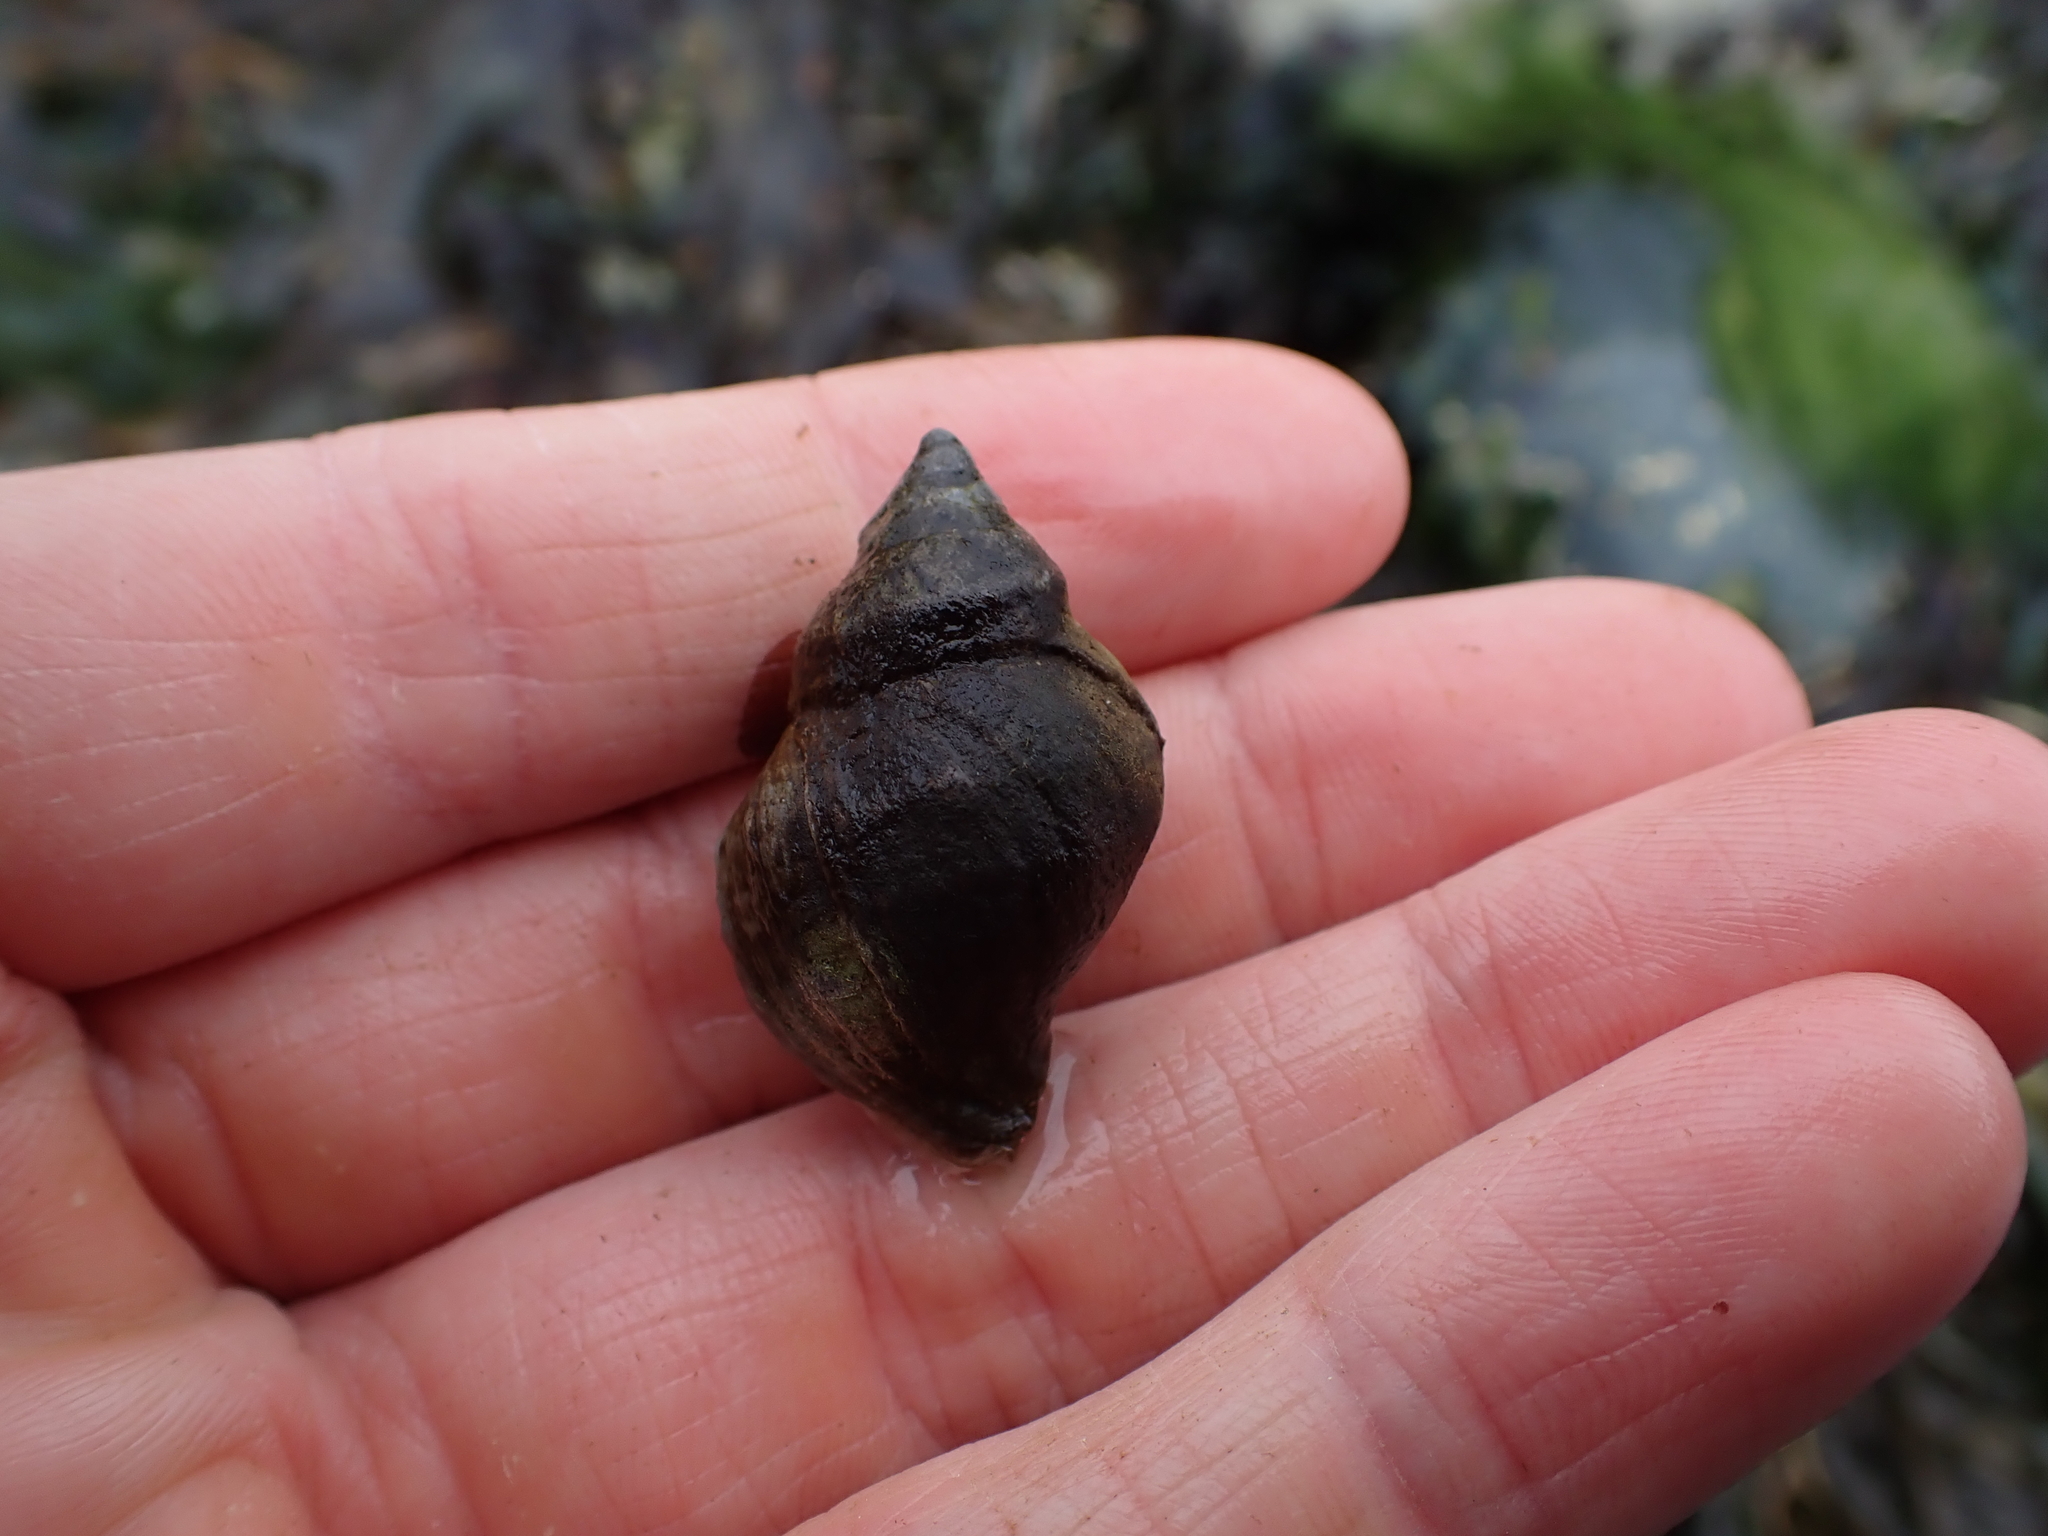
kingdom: Animalia
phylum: Mollusca
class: Gastropoda
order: Neogastropoda
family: Muricidae
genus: Nucella
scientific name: Nucella lamellosa
